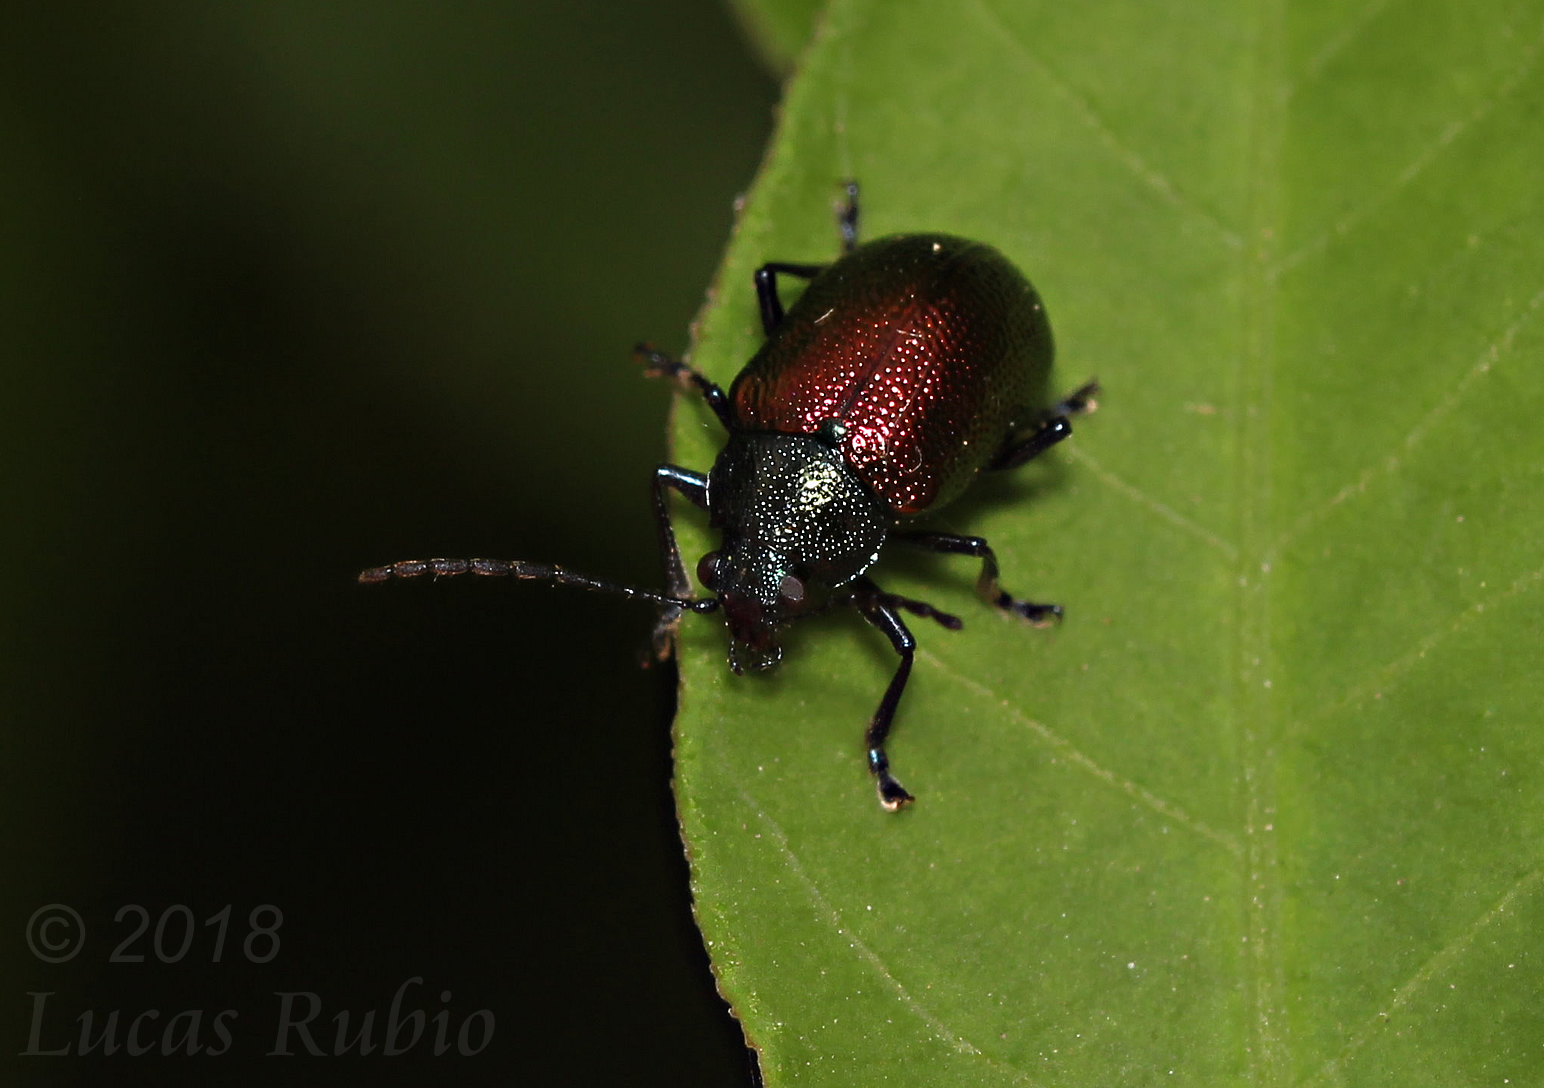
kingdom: Animalia
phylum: Arthropoda
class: Insecta
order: Coleoptera
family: Chrysomelidae
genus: Freudeita
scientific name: Freudeita
